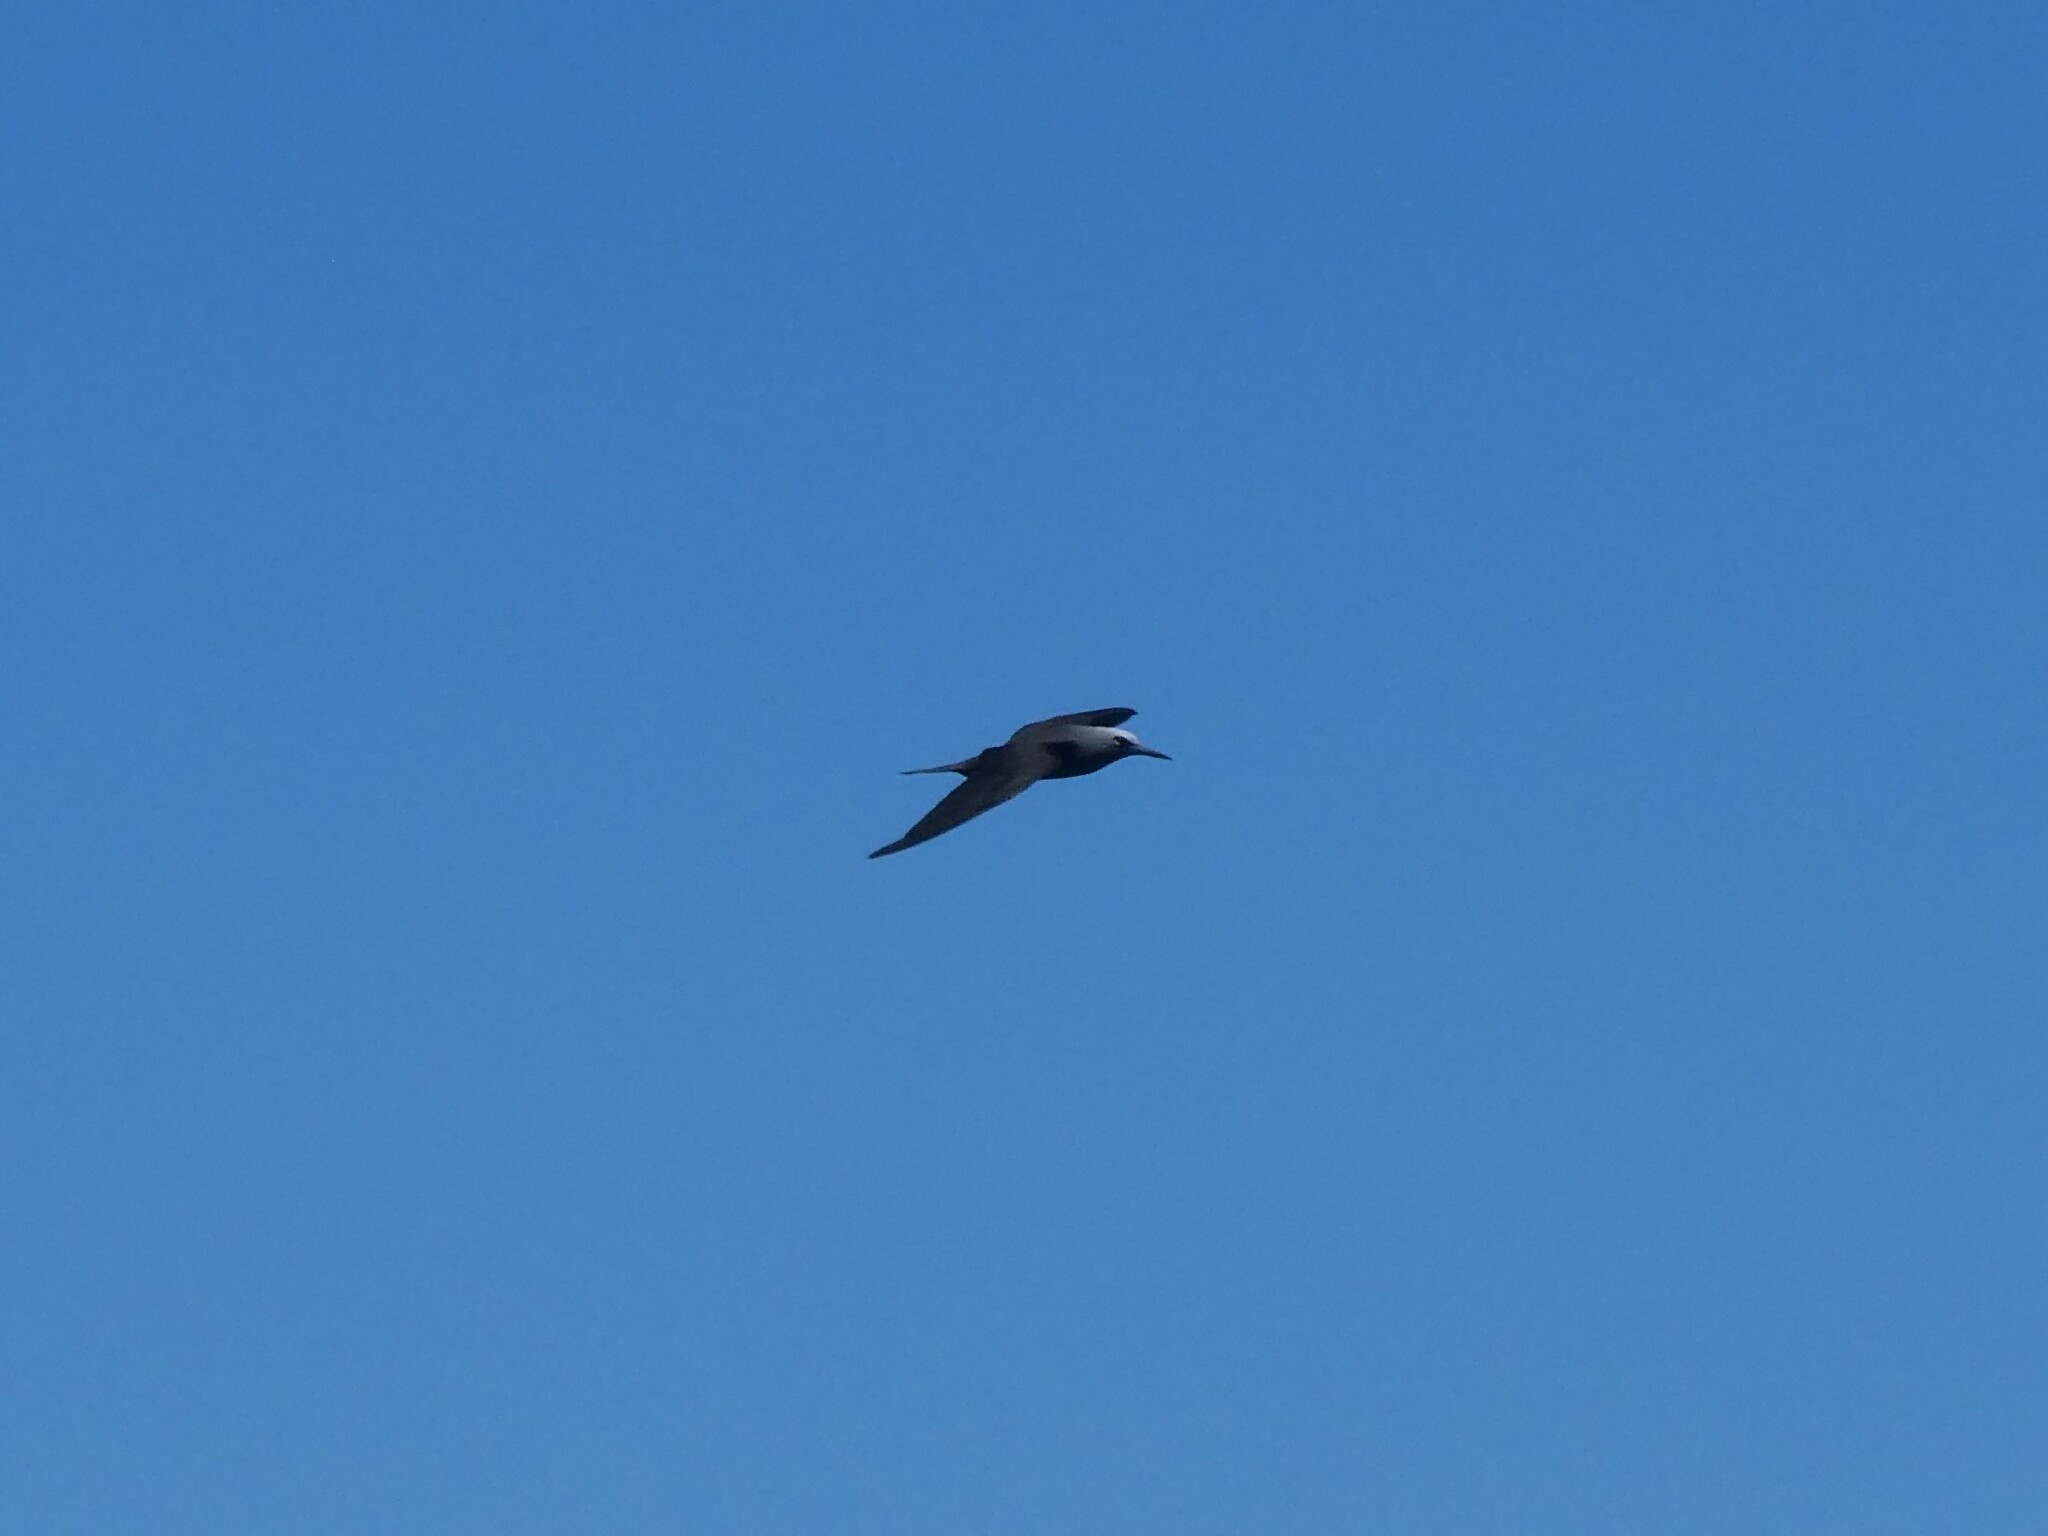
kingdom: Animalia
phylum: Chordata
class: Aves
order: Charadriiformes
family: Laridae
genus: Anous
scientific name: Anous minutus
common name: Black noddy
